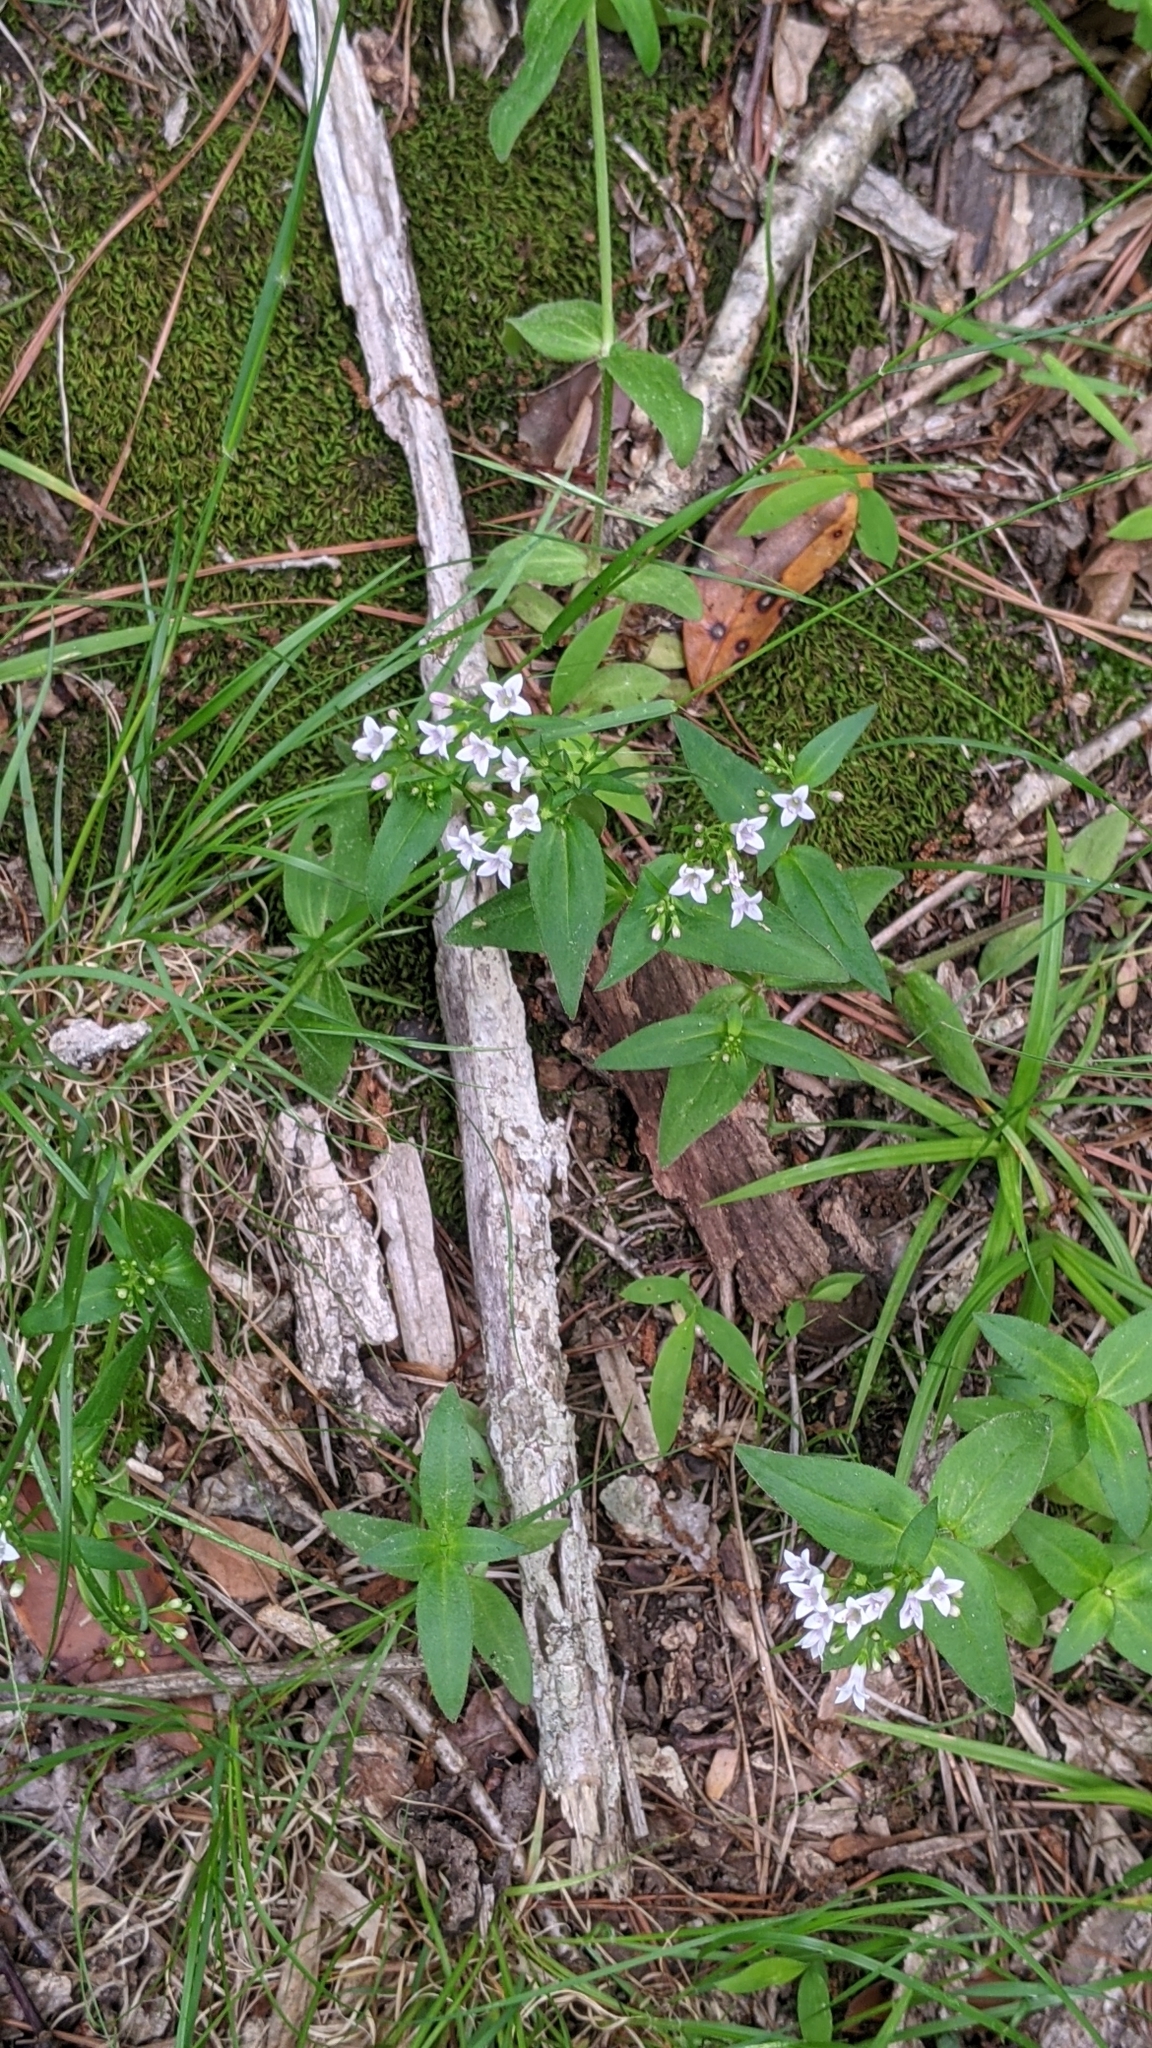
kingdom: Plantae
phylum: Tracheophyta
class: Magnoliopsida
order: Gentianales
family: Rubiaceae
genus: Houstonia
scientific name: Houstonia purpurea
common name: Summer bluet
